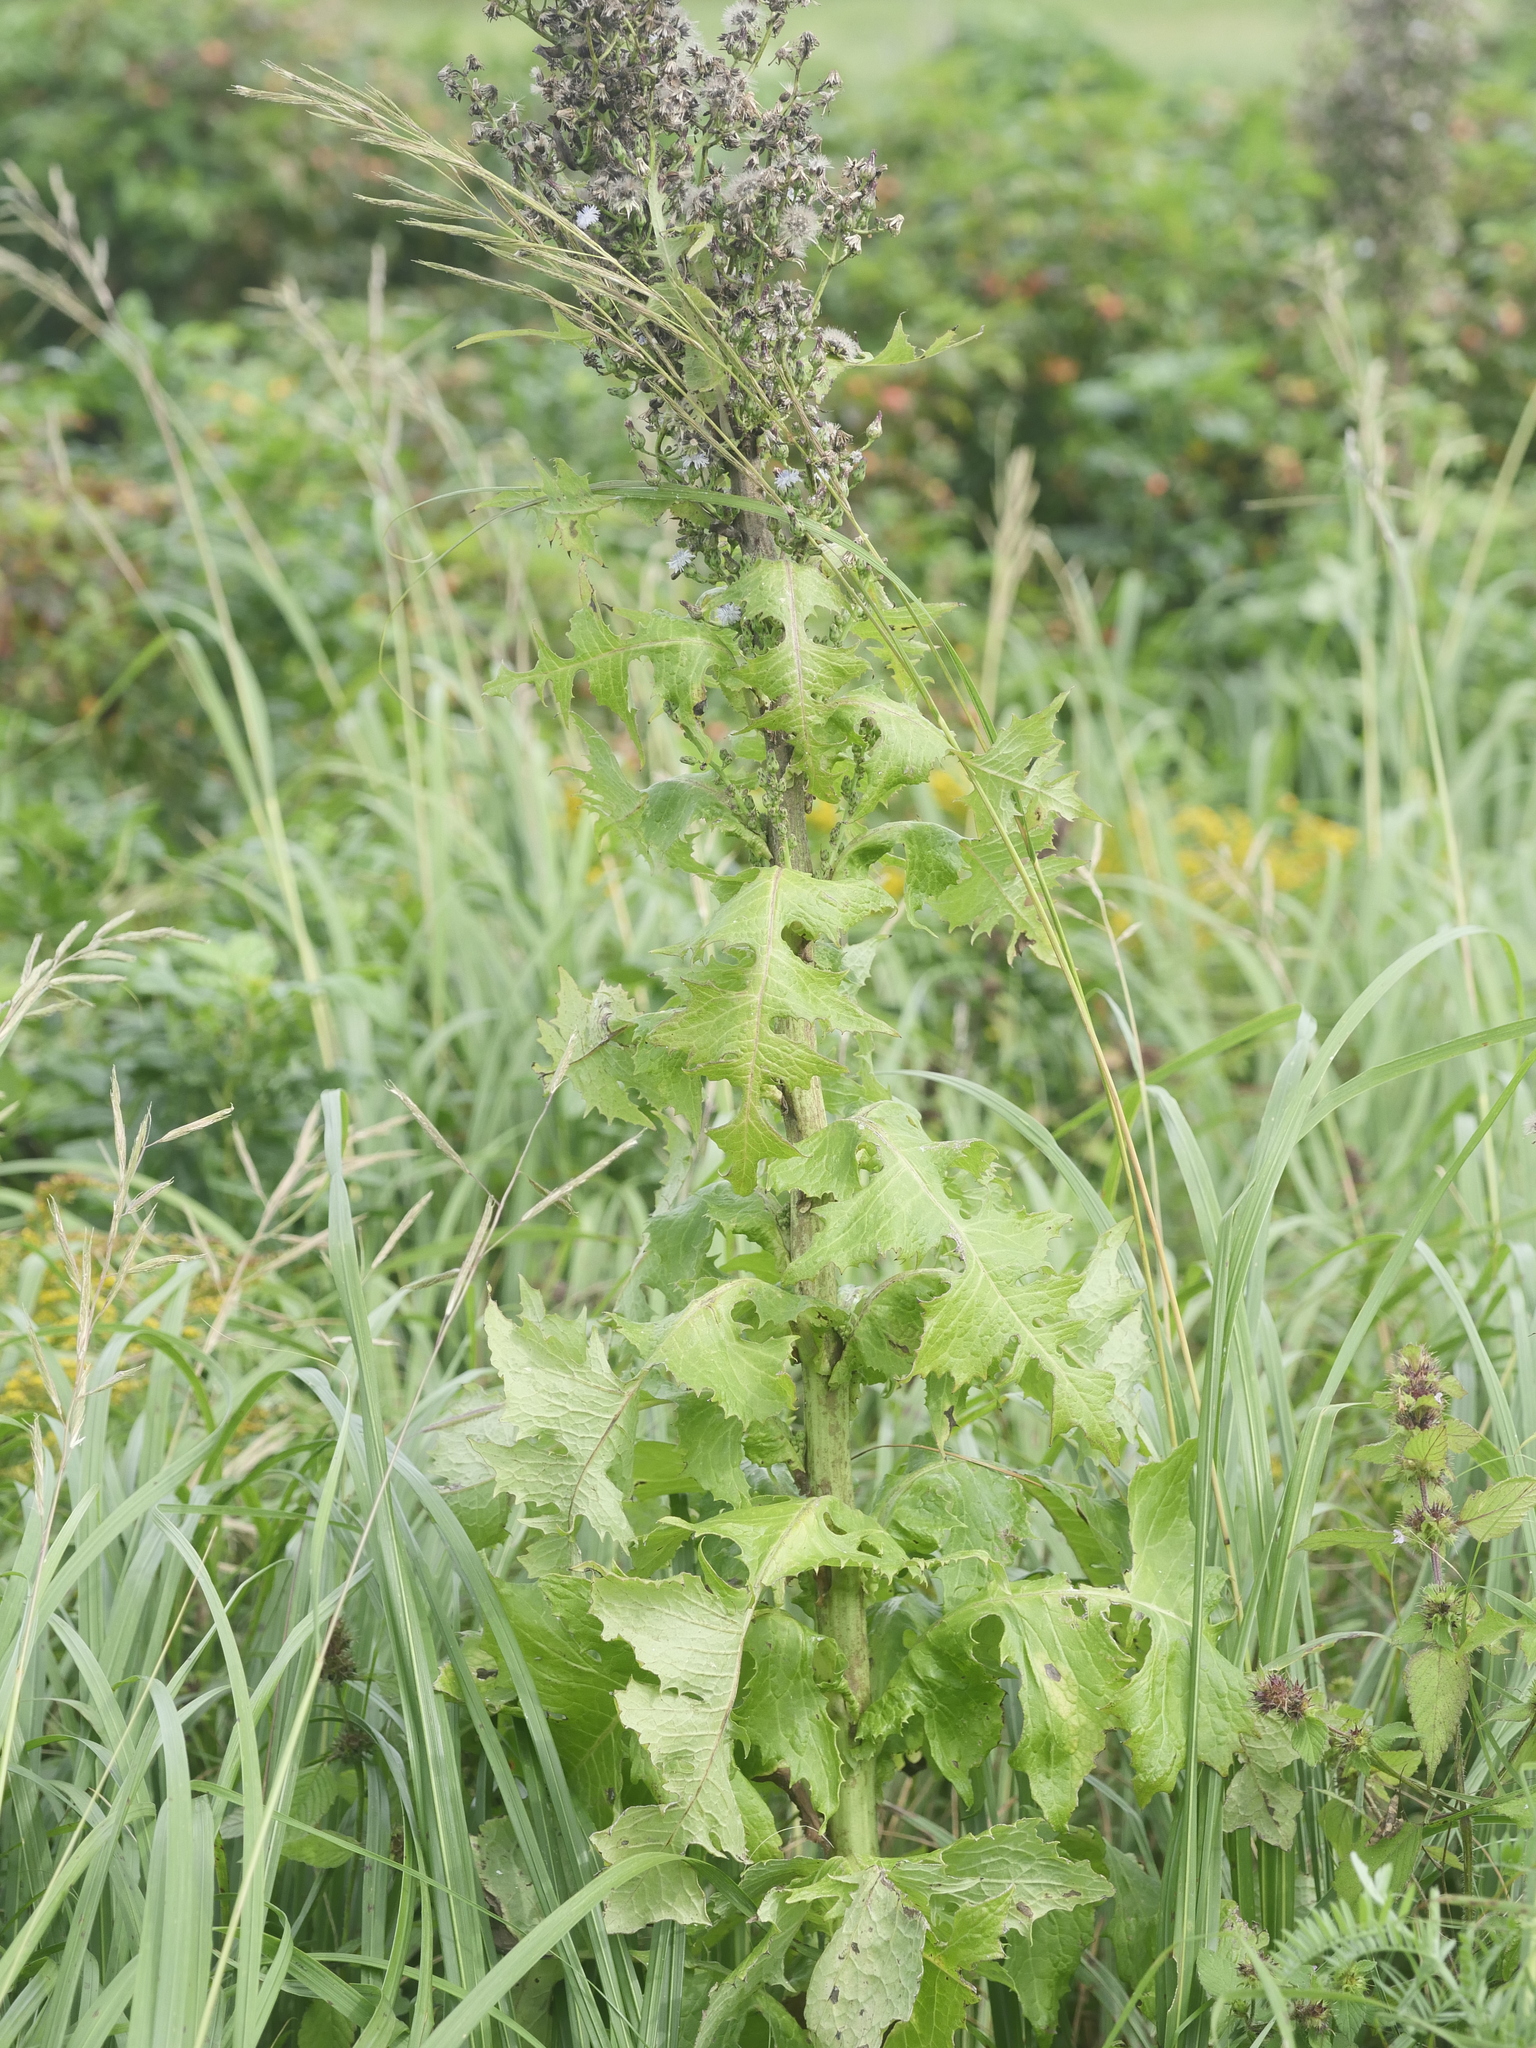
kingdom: Plantae
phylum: Tracheophyta
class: Magnoliopsida
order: Asterales
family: Asteraceae
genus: Lactuca
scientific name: Lactuca biennis
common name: Blue wood lettuce
